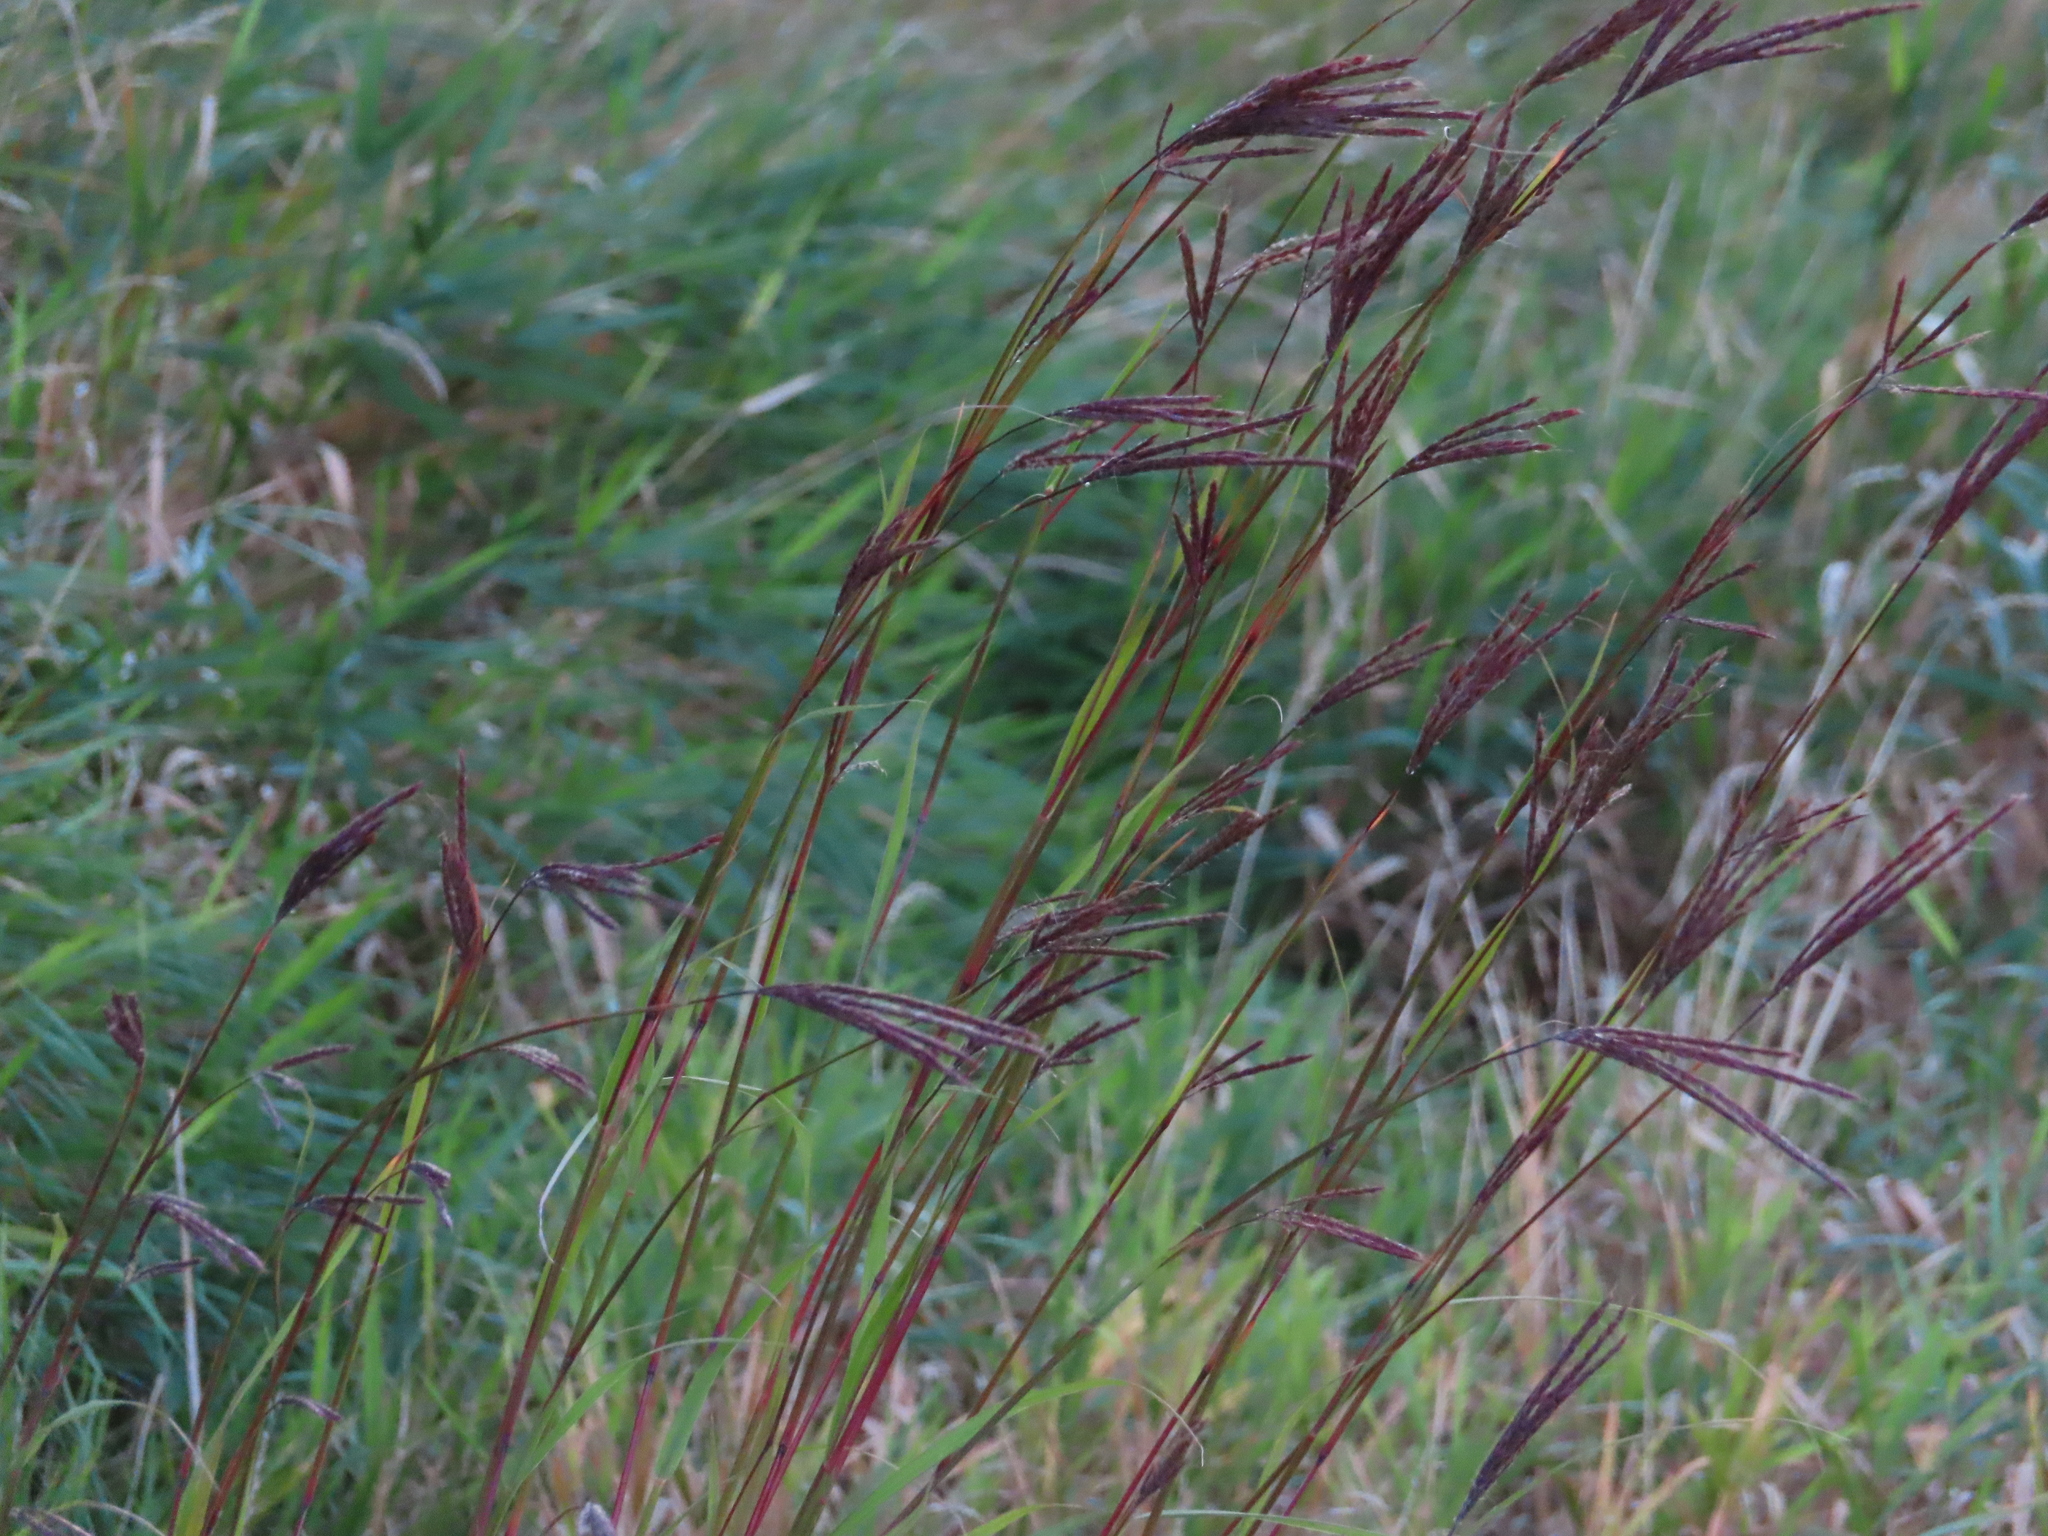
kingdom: Plantae
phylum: Tracheophyta
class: Liliopsida
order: Poales
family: Poaceae
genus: Andropogon
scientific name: Andropogon gerardi
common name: Big bluestem
